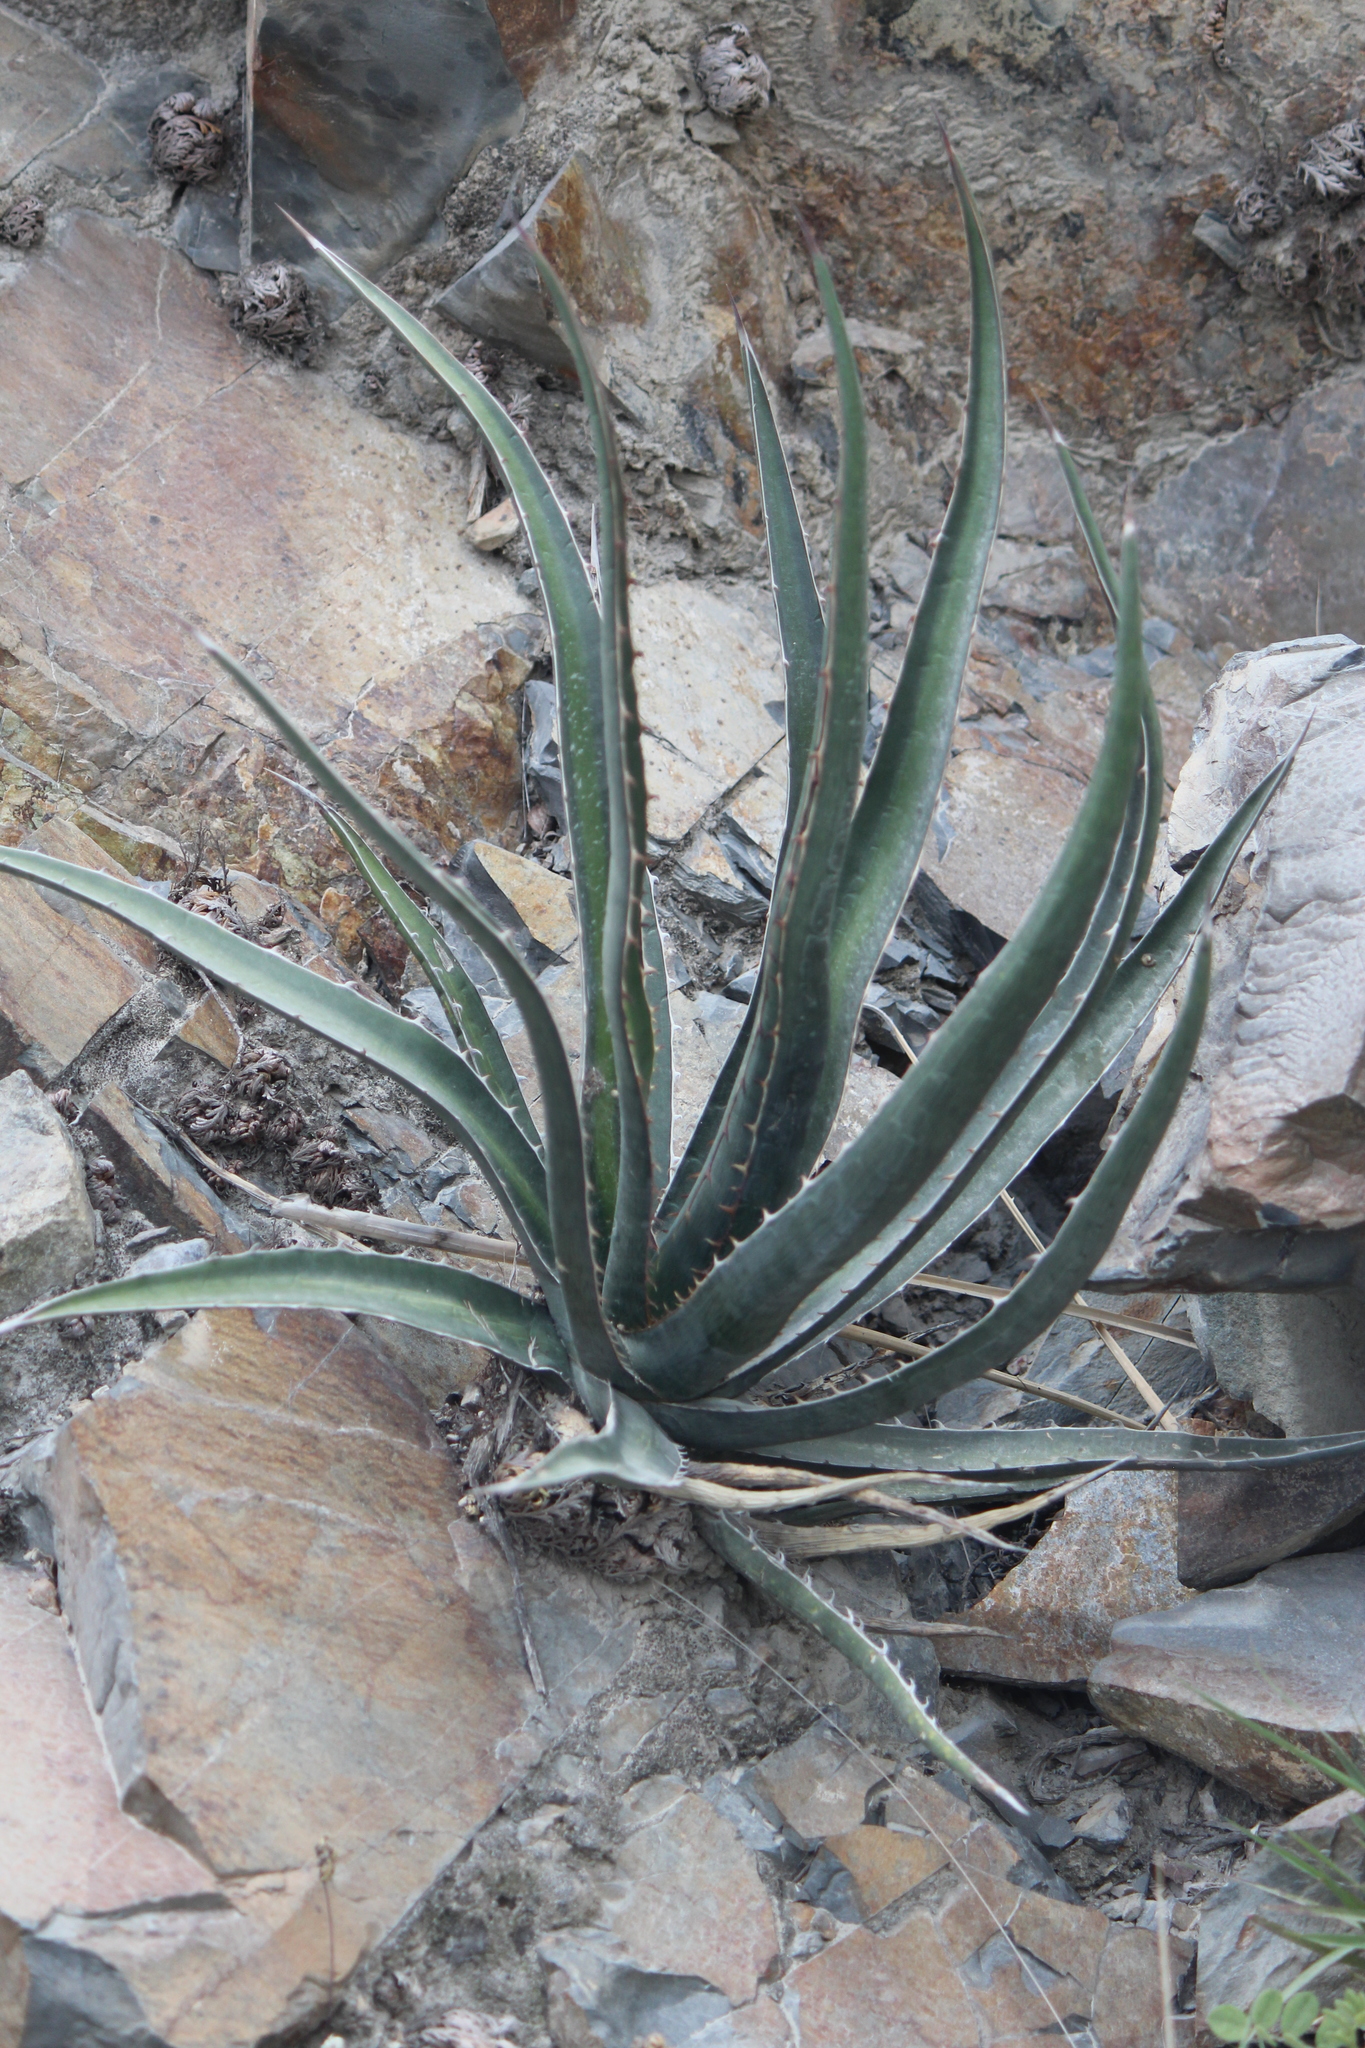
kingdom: Plantae
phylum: Tracheophyta
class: Liliopsida
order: Asparagales
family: Asparagaceae
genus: Agave
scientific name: Agave lechuguilla
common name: Lecheguilla agave
